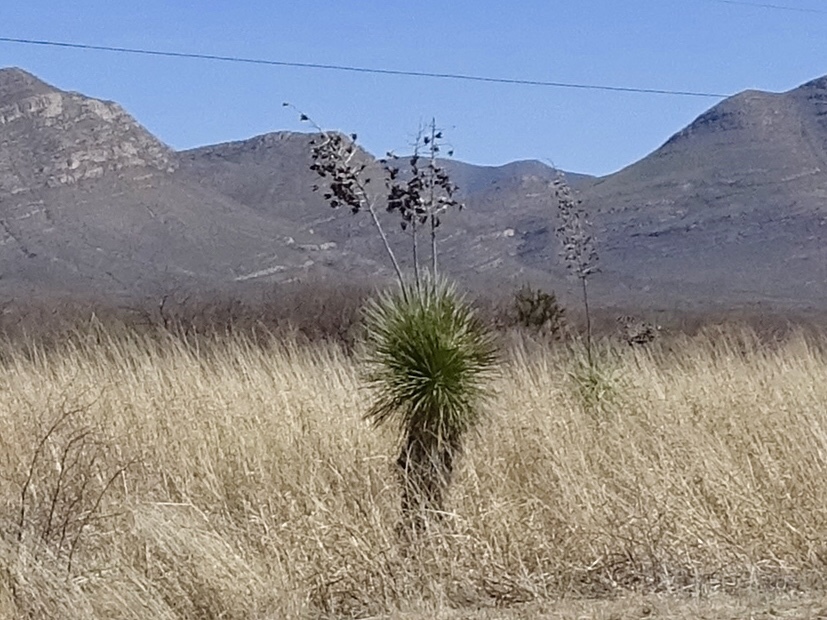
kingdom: Plantae
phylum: Tracheophyta
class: Liliopsida
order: Asparagales
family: Asparagaceae
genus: Yucca
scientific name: Yucca elata
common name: Palmella
